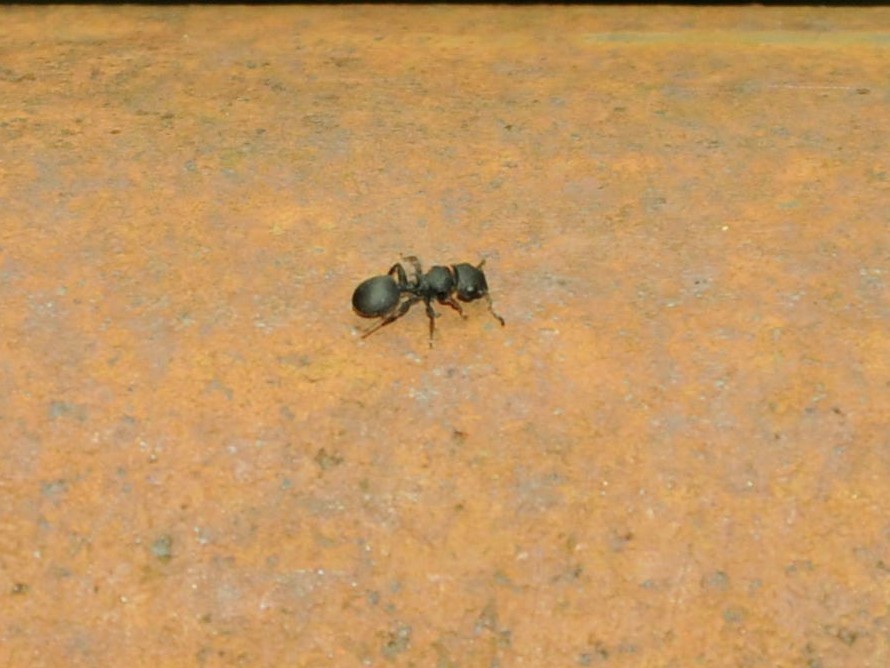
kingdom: Animalia
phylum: Arthropoda
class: Insecta
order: Hymenoptera
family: Formicidae
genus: Cataulacus
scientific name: Cataulacus taprobanae
